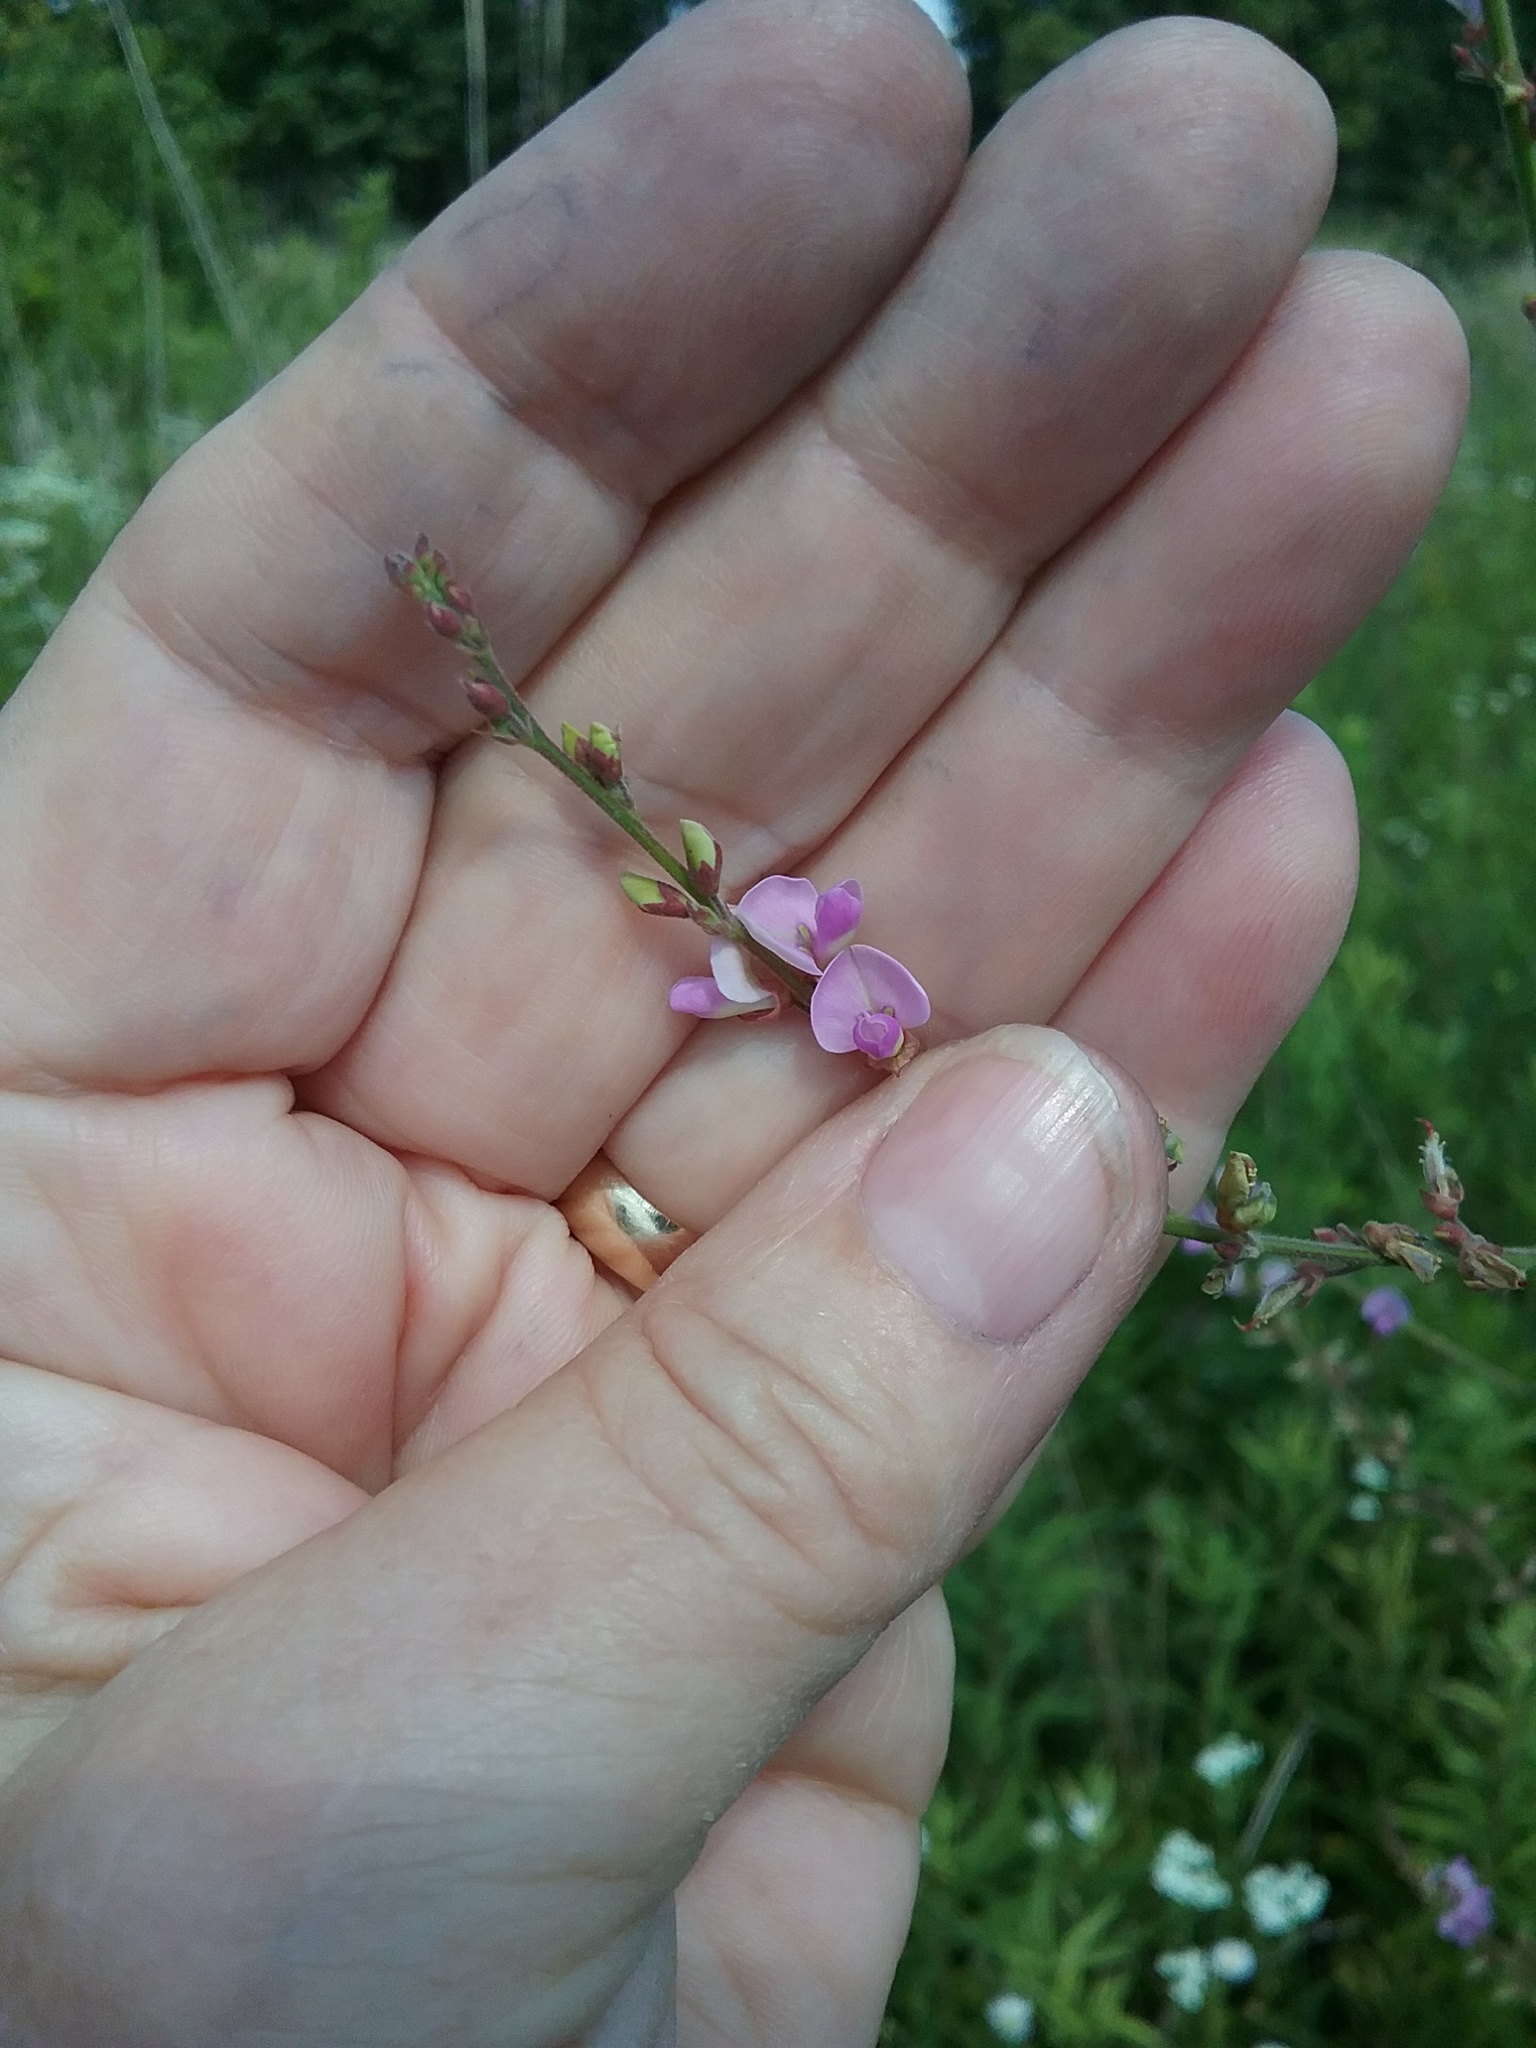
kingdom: Plantae
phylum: Tracheophyta
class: Magnoliopsida
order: Fabales
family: Fabaceae
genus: Desmodium
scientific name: Desmodium sessilifolium
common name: Sessile tick-clover
